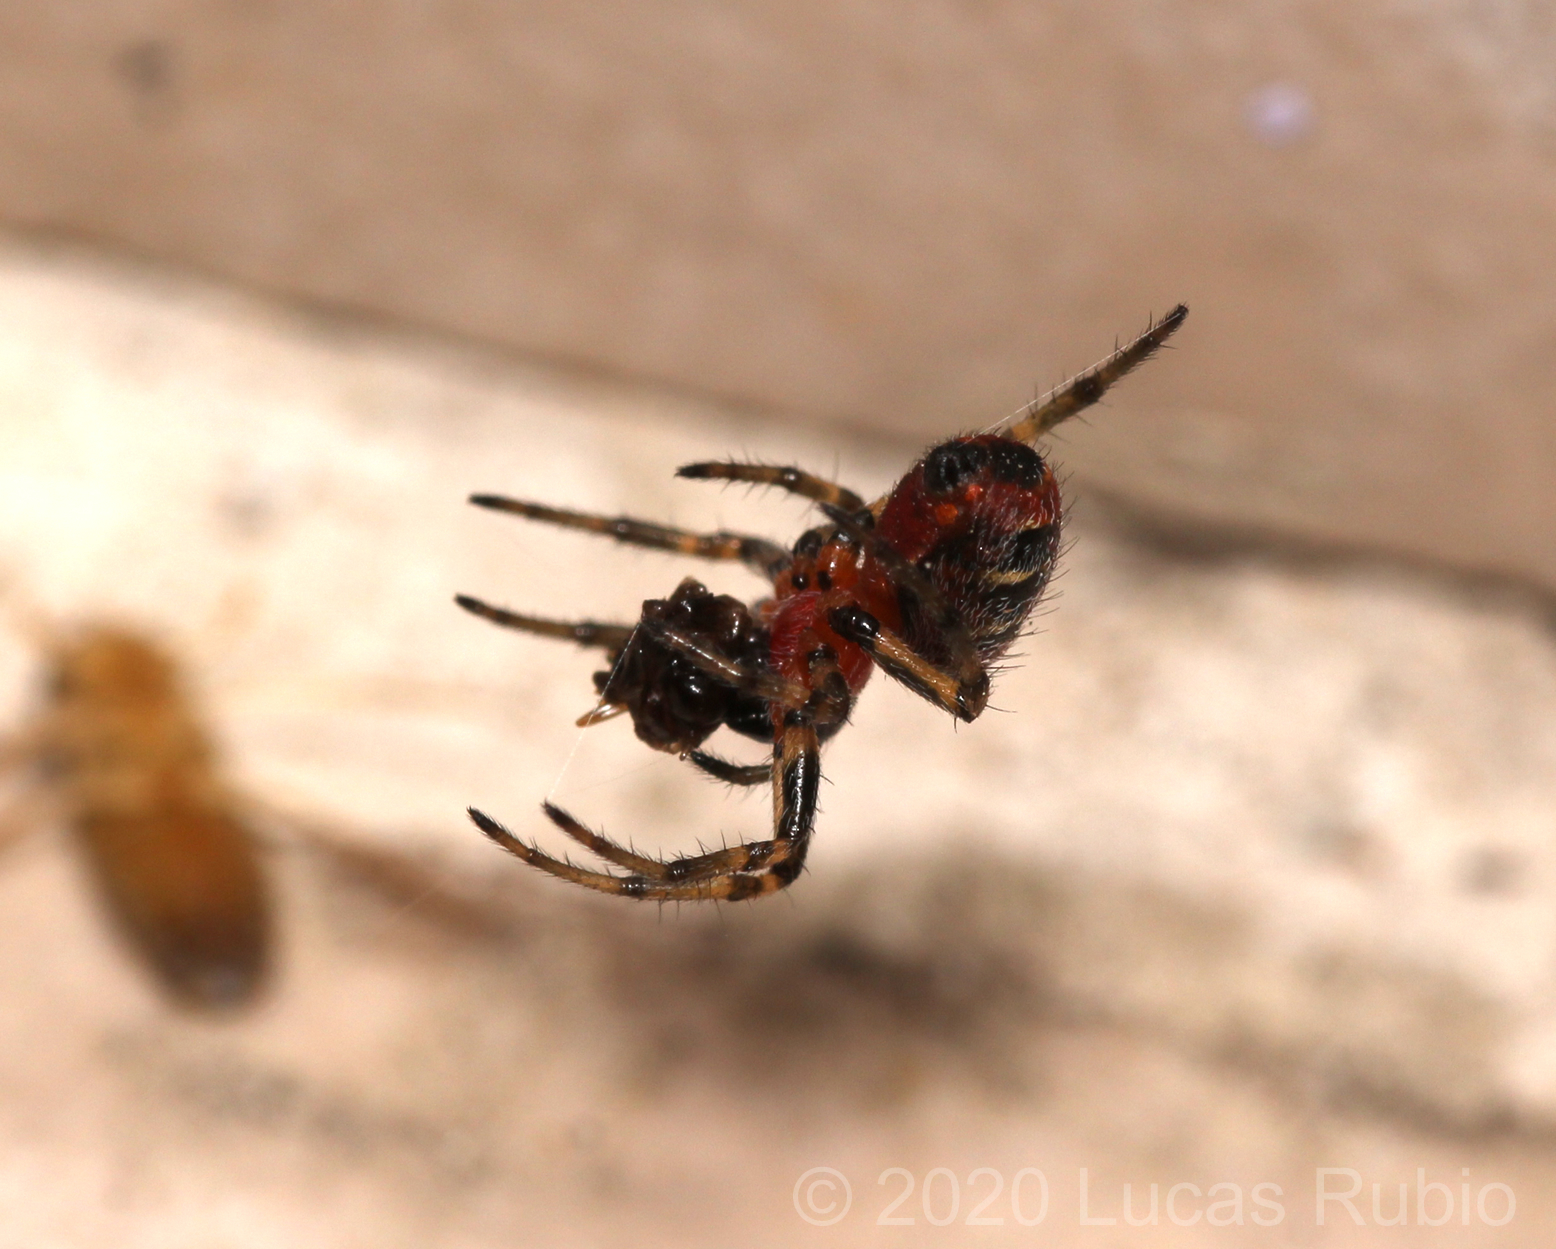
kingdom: Animalia
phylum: Arthropoda
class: Arachnida
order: Araneae
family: Araneidae
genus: Alpaida
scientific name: Alpaida versicolor
